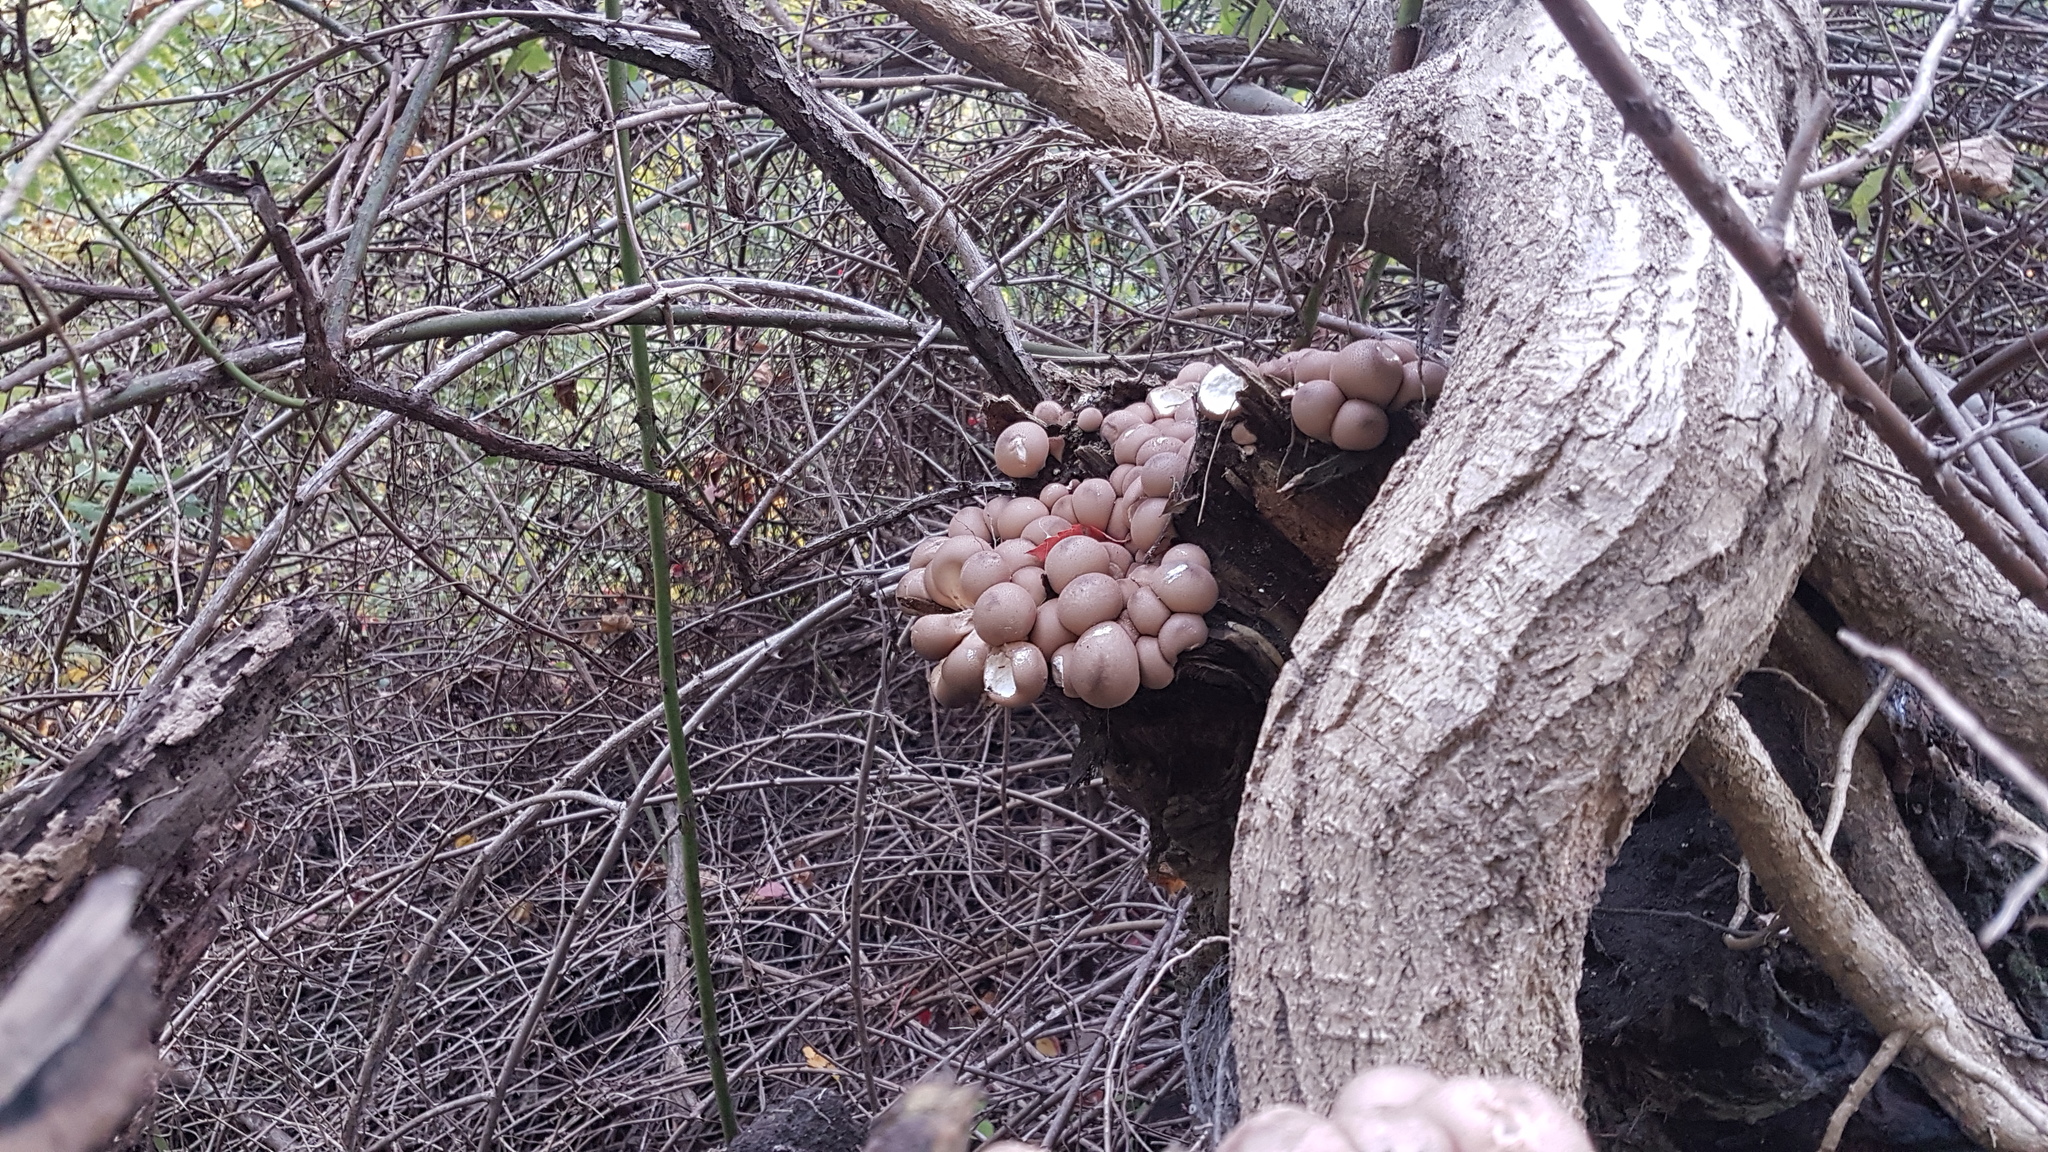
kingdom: Fungi
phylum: Basidiomycota
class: Agaricomycetes
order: Agaricales
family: Lycoperdaceae
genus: Apioperdon
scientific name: Apioperdon pyriforme
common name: Pear-shaped puffball
